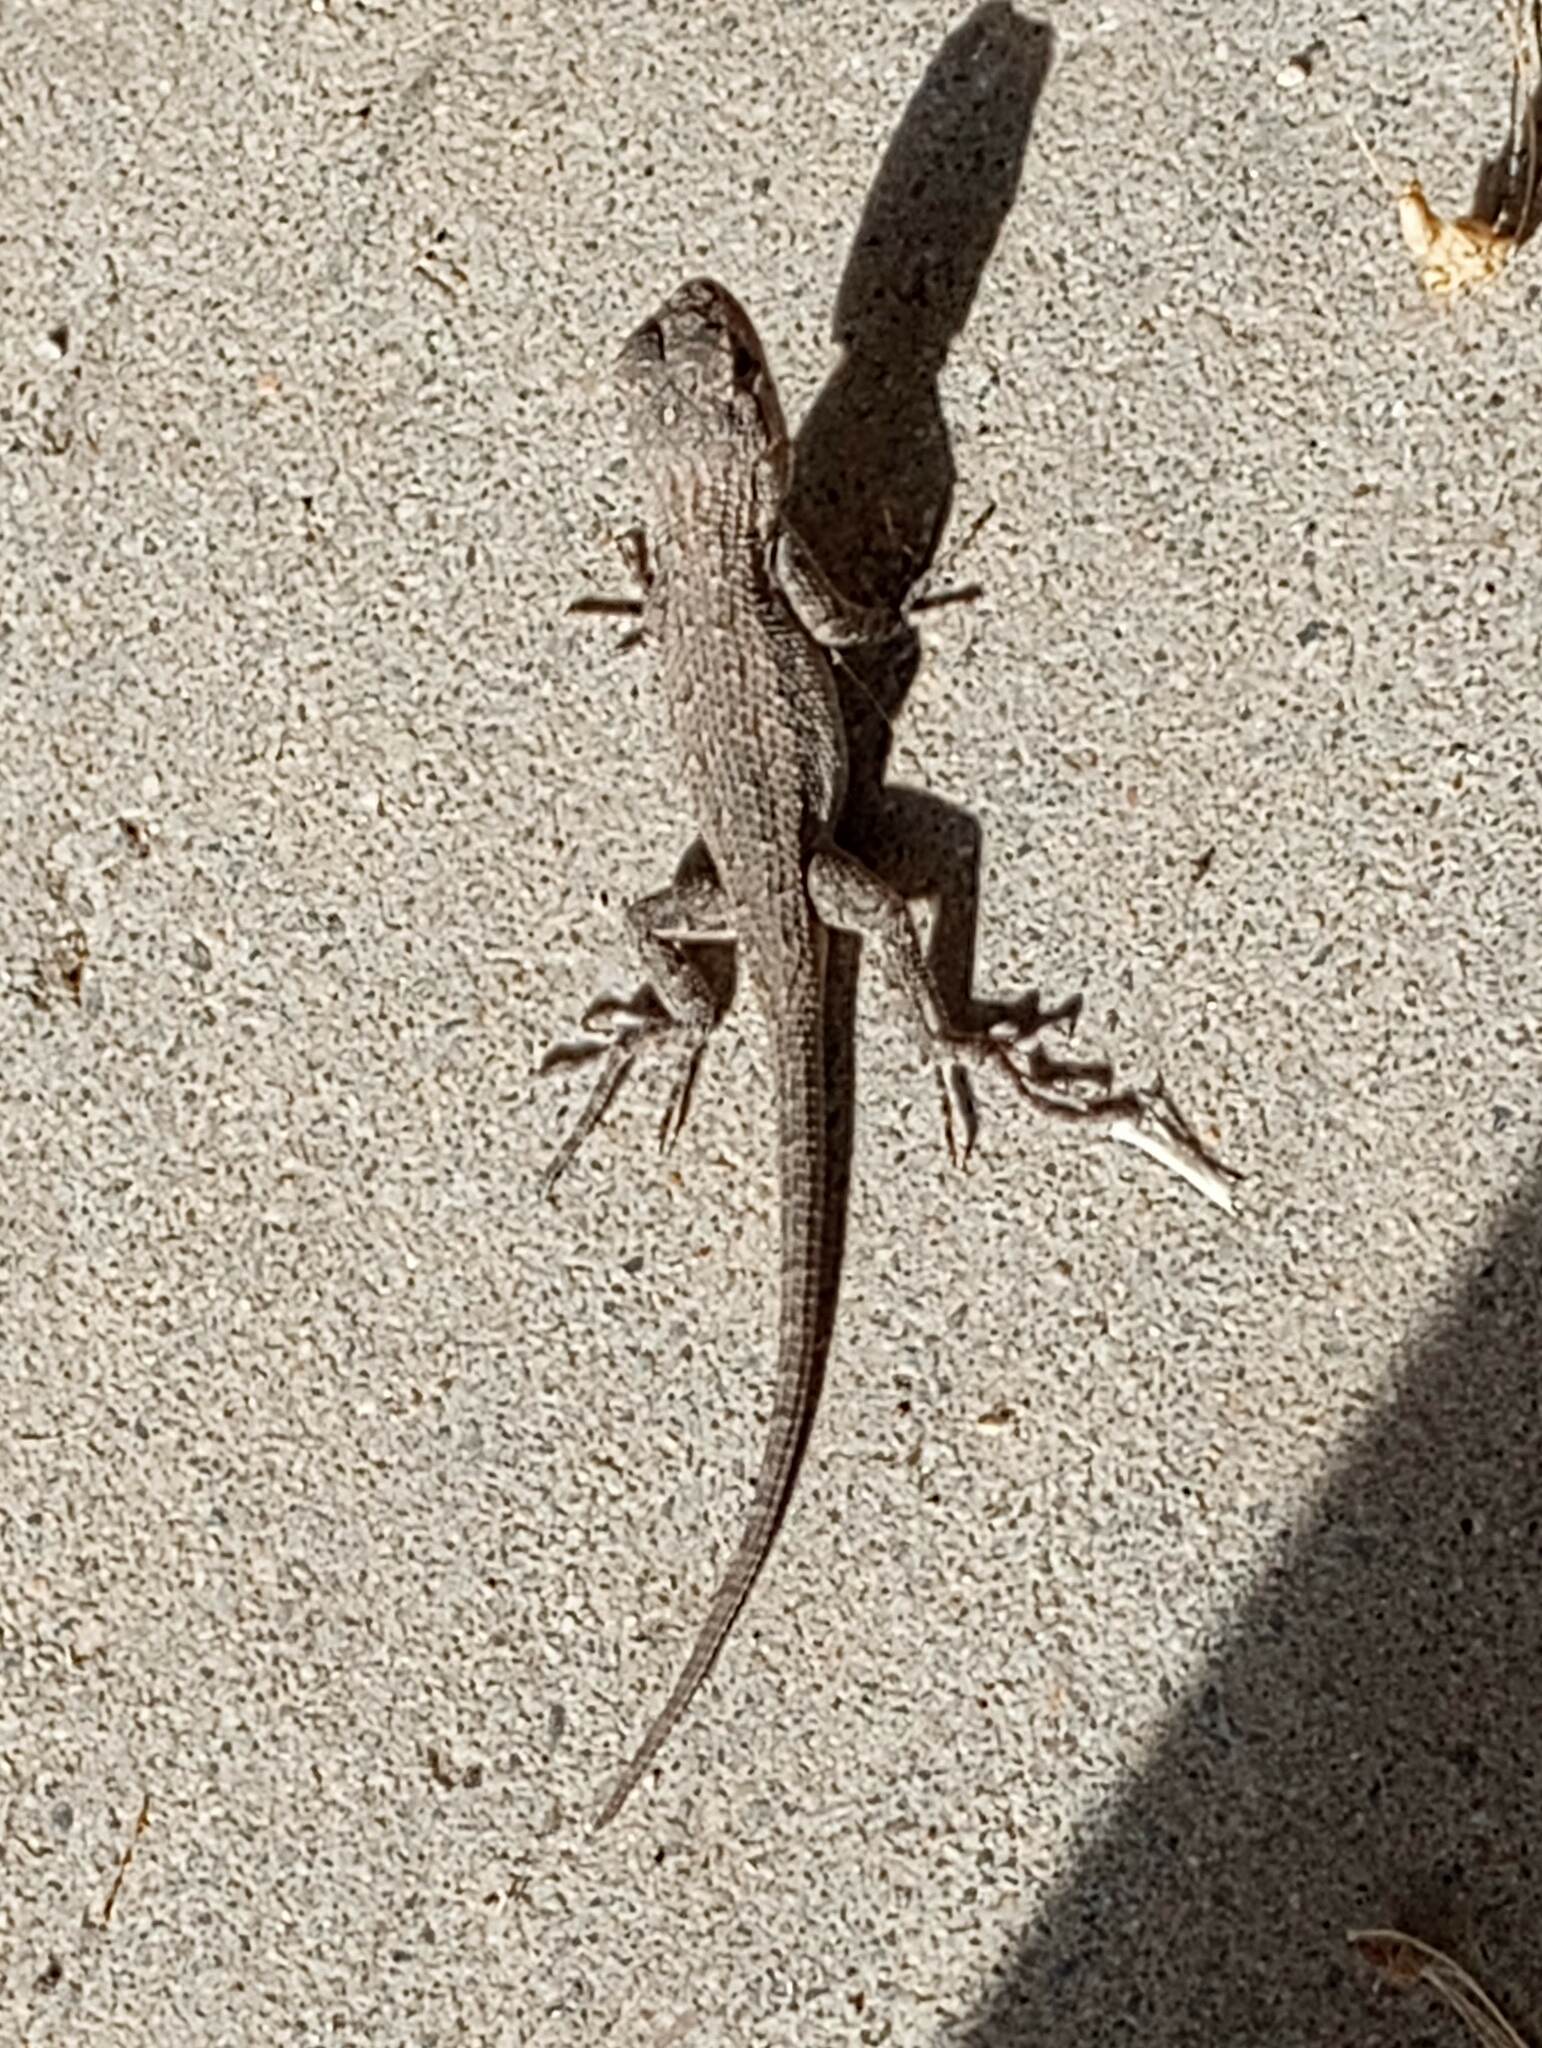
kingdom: Animalia
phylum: Chordata
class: Squamata
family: Phrynosomatidae
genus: Sceloporus
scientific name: Sceloporus occidentalis
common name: Western fence lizard
